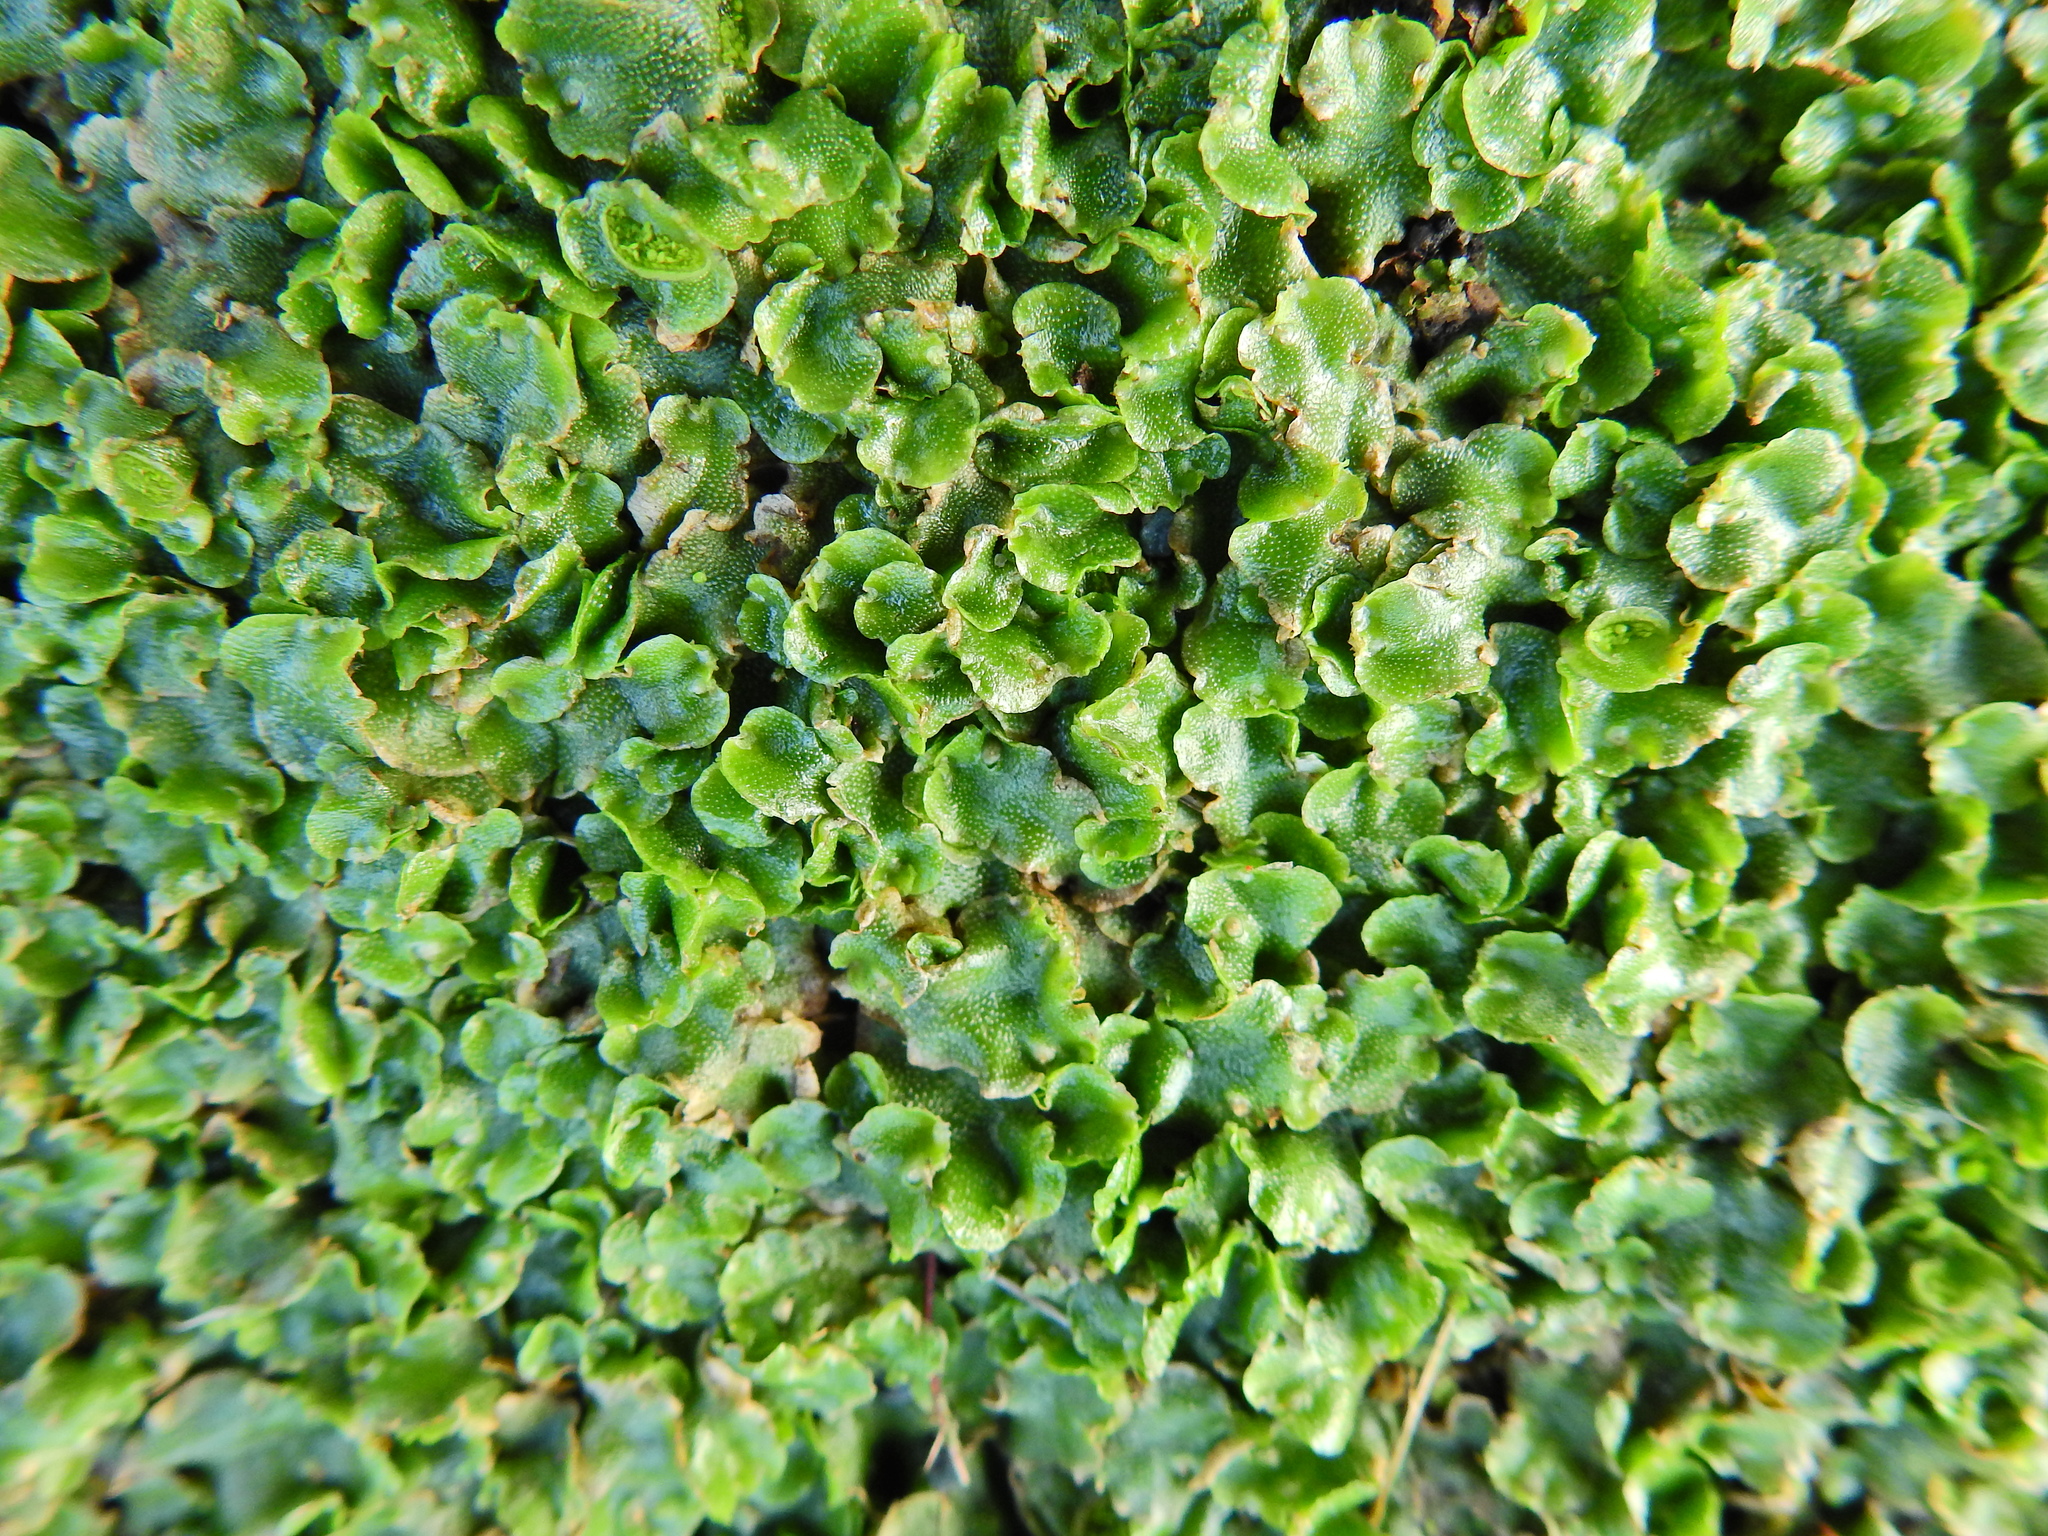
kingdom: Plantae
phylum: Marchantiophyta
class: Marchantiopsida
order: Lunulariales
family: Lunulariaceae
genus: Lunularia
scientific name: Lunularia cruciata
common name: Crescent-cup liverwort
